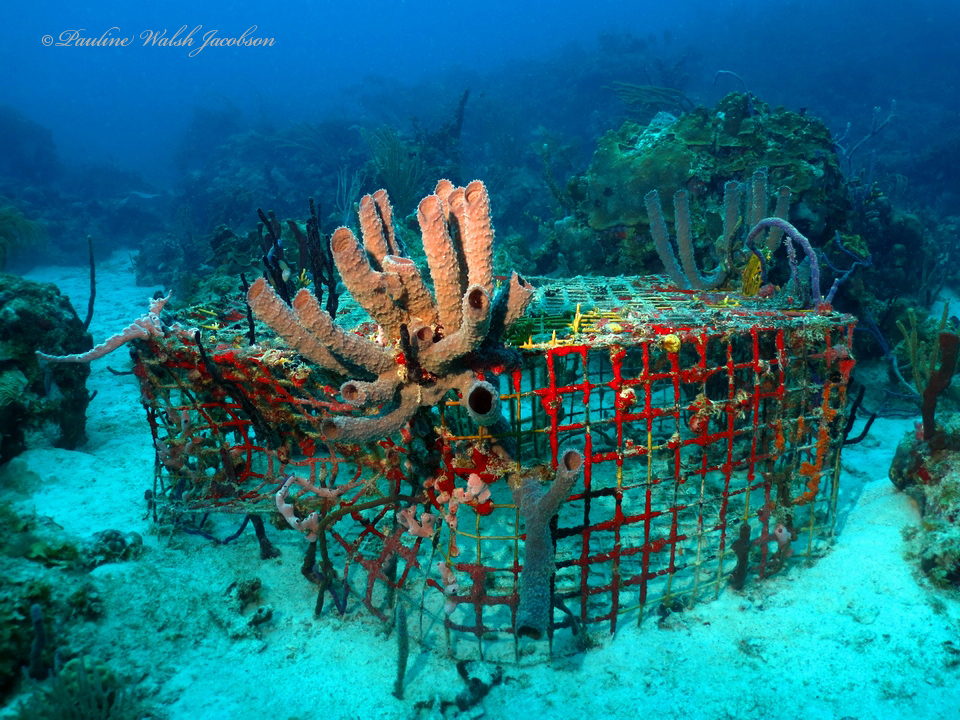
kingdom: Animalia
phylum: Porifera
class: Demospongiae
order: Haplosclerida
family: Callyspongiidae
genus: Callyspongia
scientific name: Callyspongia aculeata
